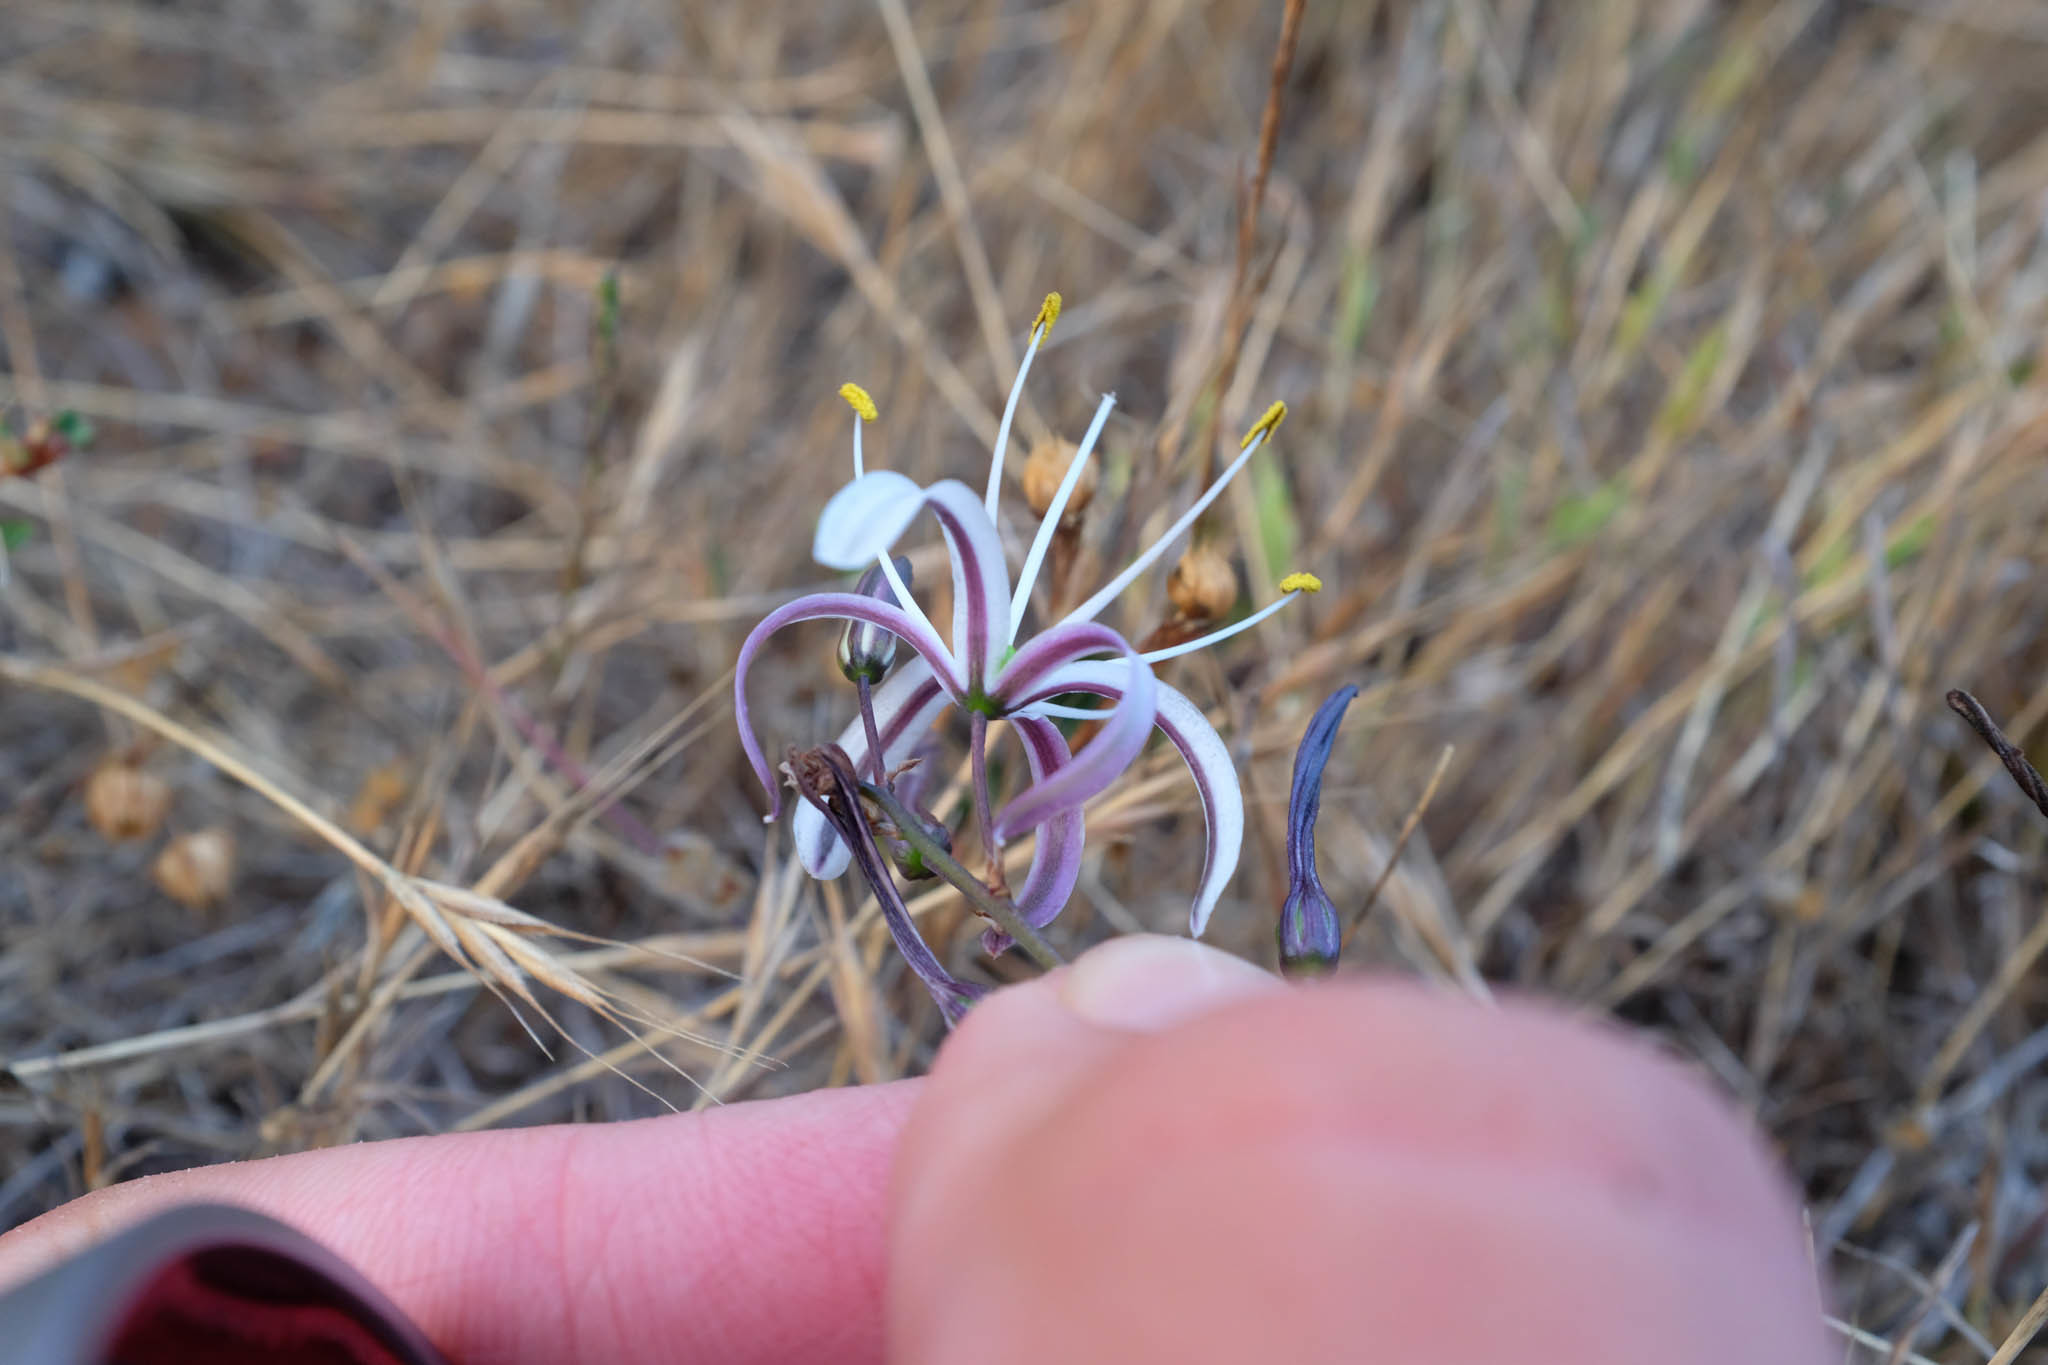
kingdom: Plantae
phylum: Tracheophyta
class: Liliopsida
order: Asparagales
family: Asparagaceae
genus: Chlorogalum
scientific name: Chlorogalum pomeridianum
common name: Amole
